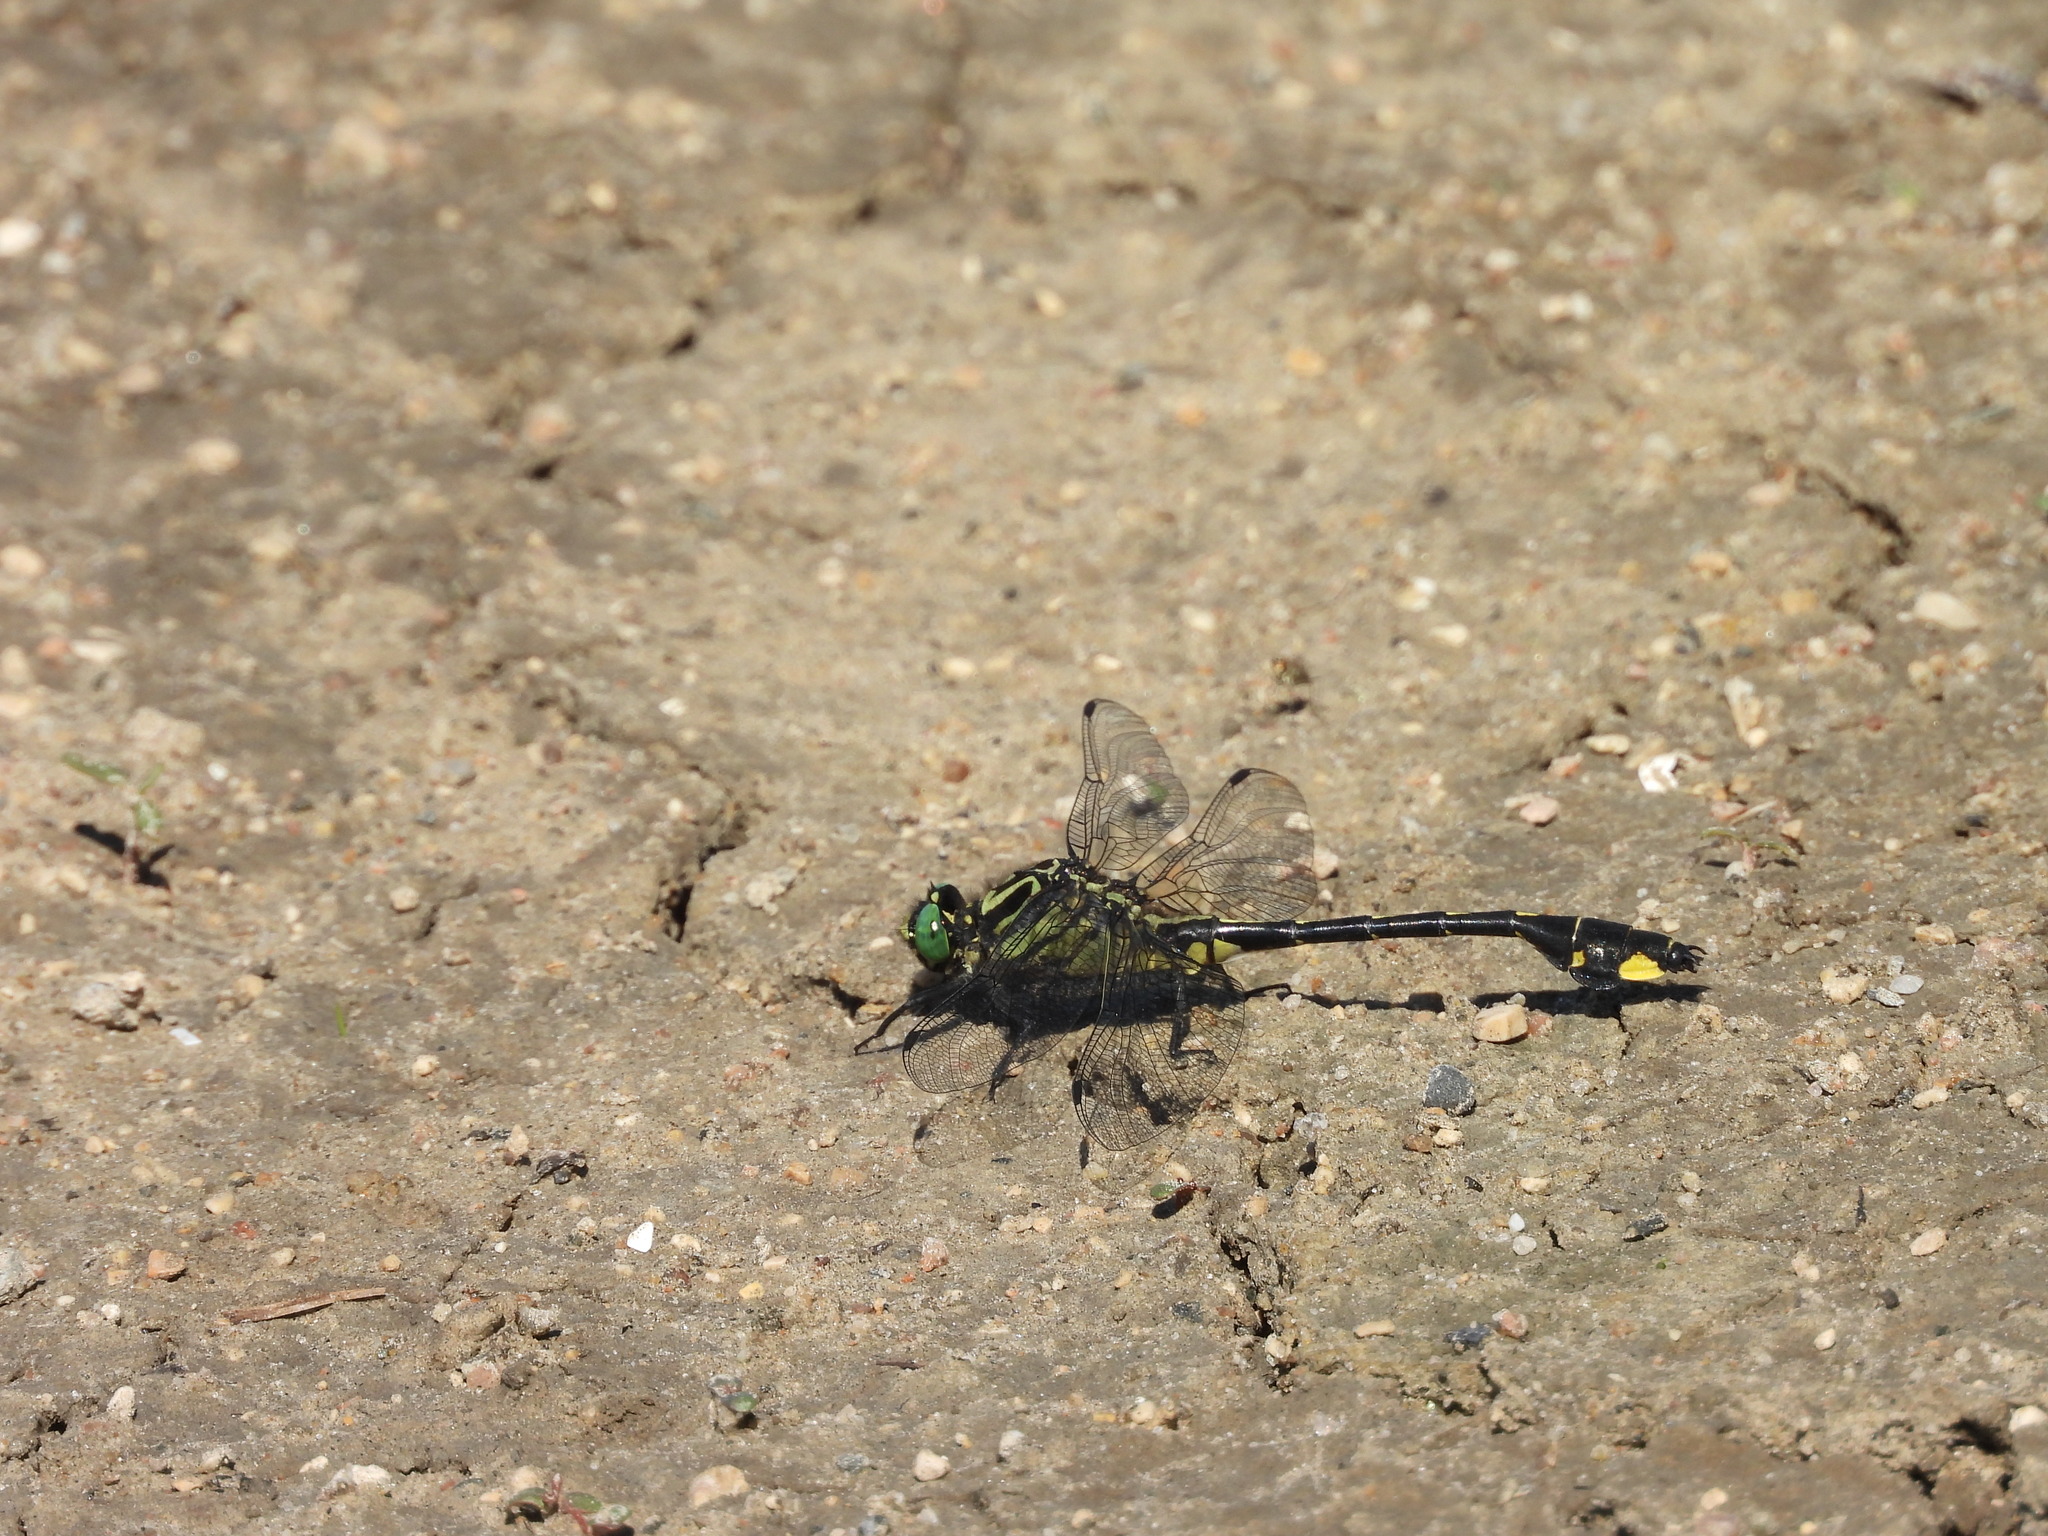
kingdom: Animalia
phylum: Arthropoda
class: Insecta
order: Odonata
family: Gomphidae
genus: Gomphurus
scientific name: Gomphurus vastus
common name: Cobra clubtail
